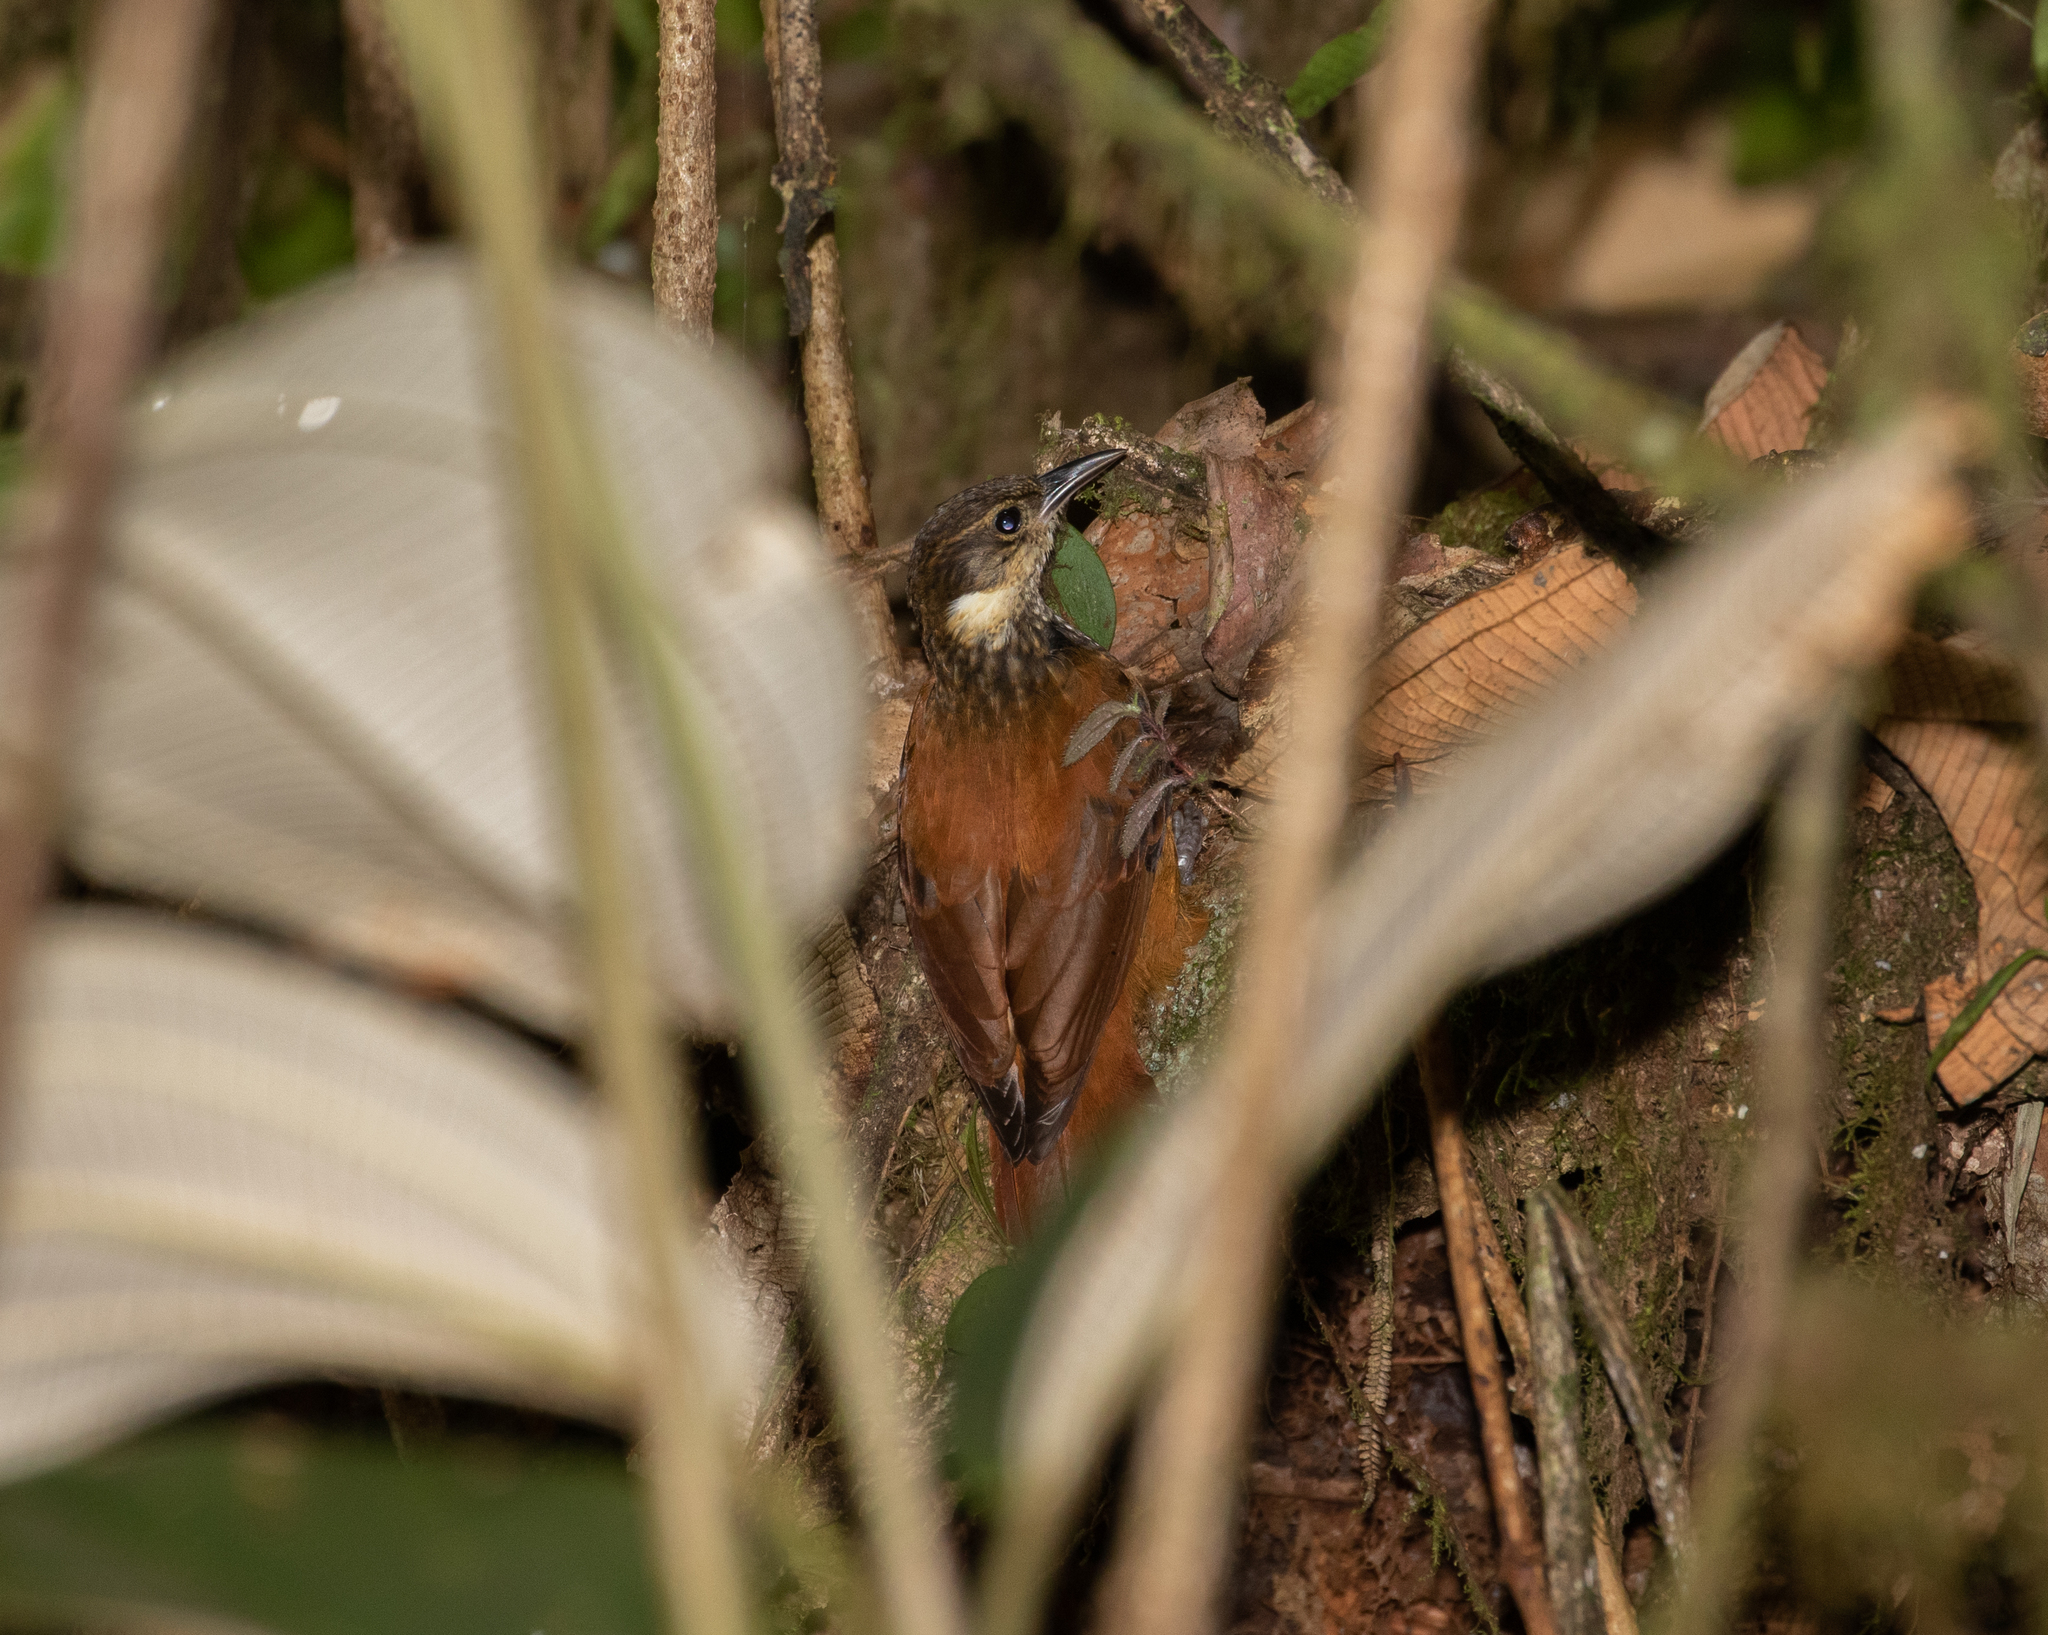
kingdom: Animalia
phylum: Chordata
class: Aves
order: Passeriformes
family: Furnariidae
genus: Pseudocolaptes
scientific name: Pseudocolaptes johnsoni
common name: Pacific tuftedcheek
